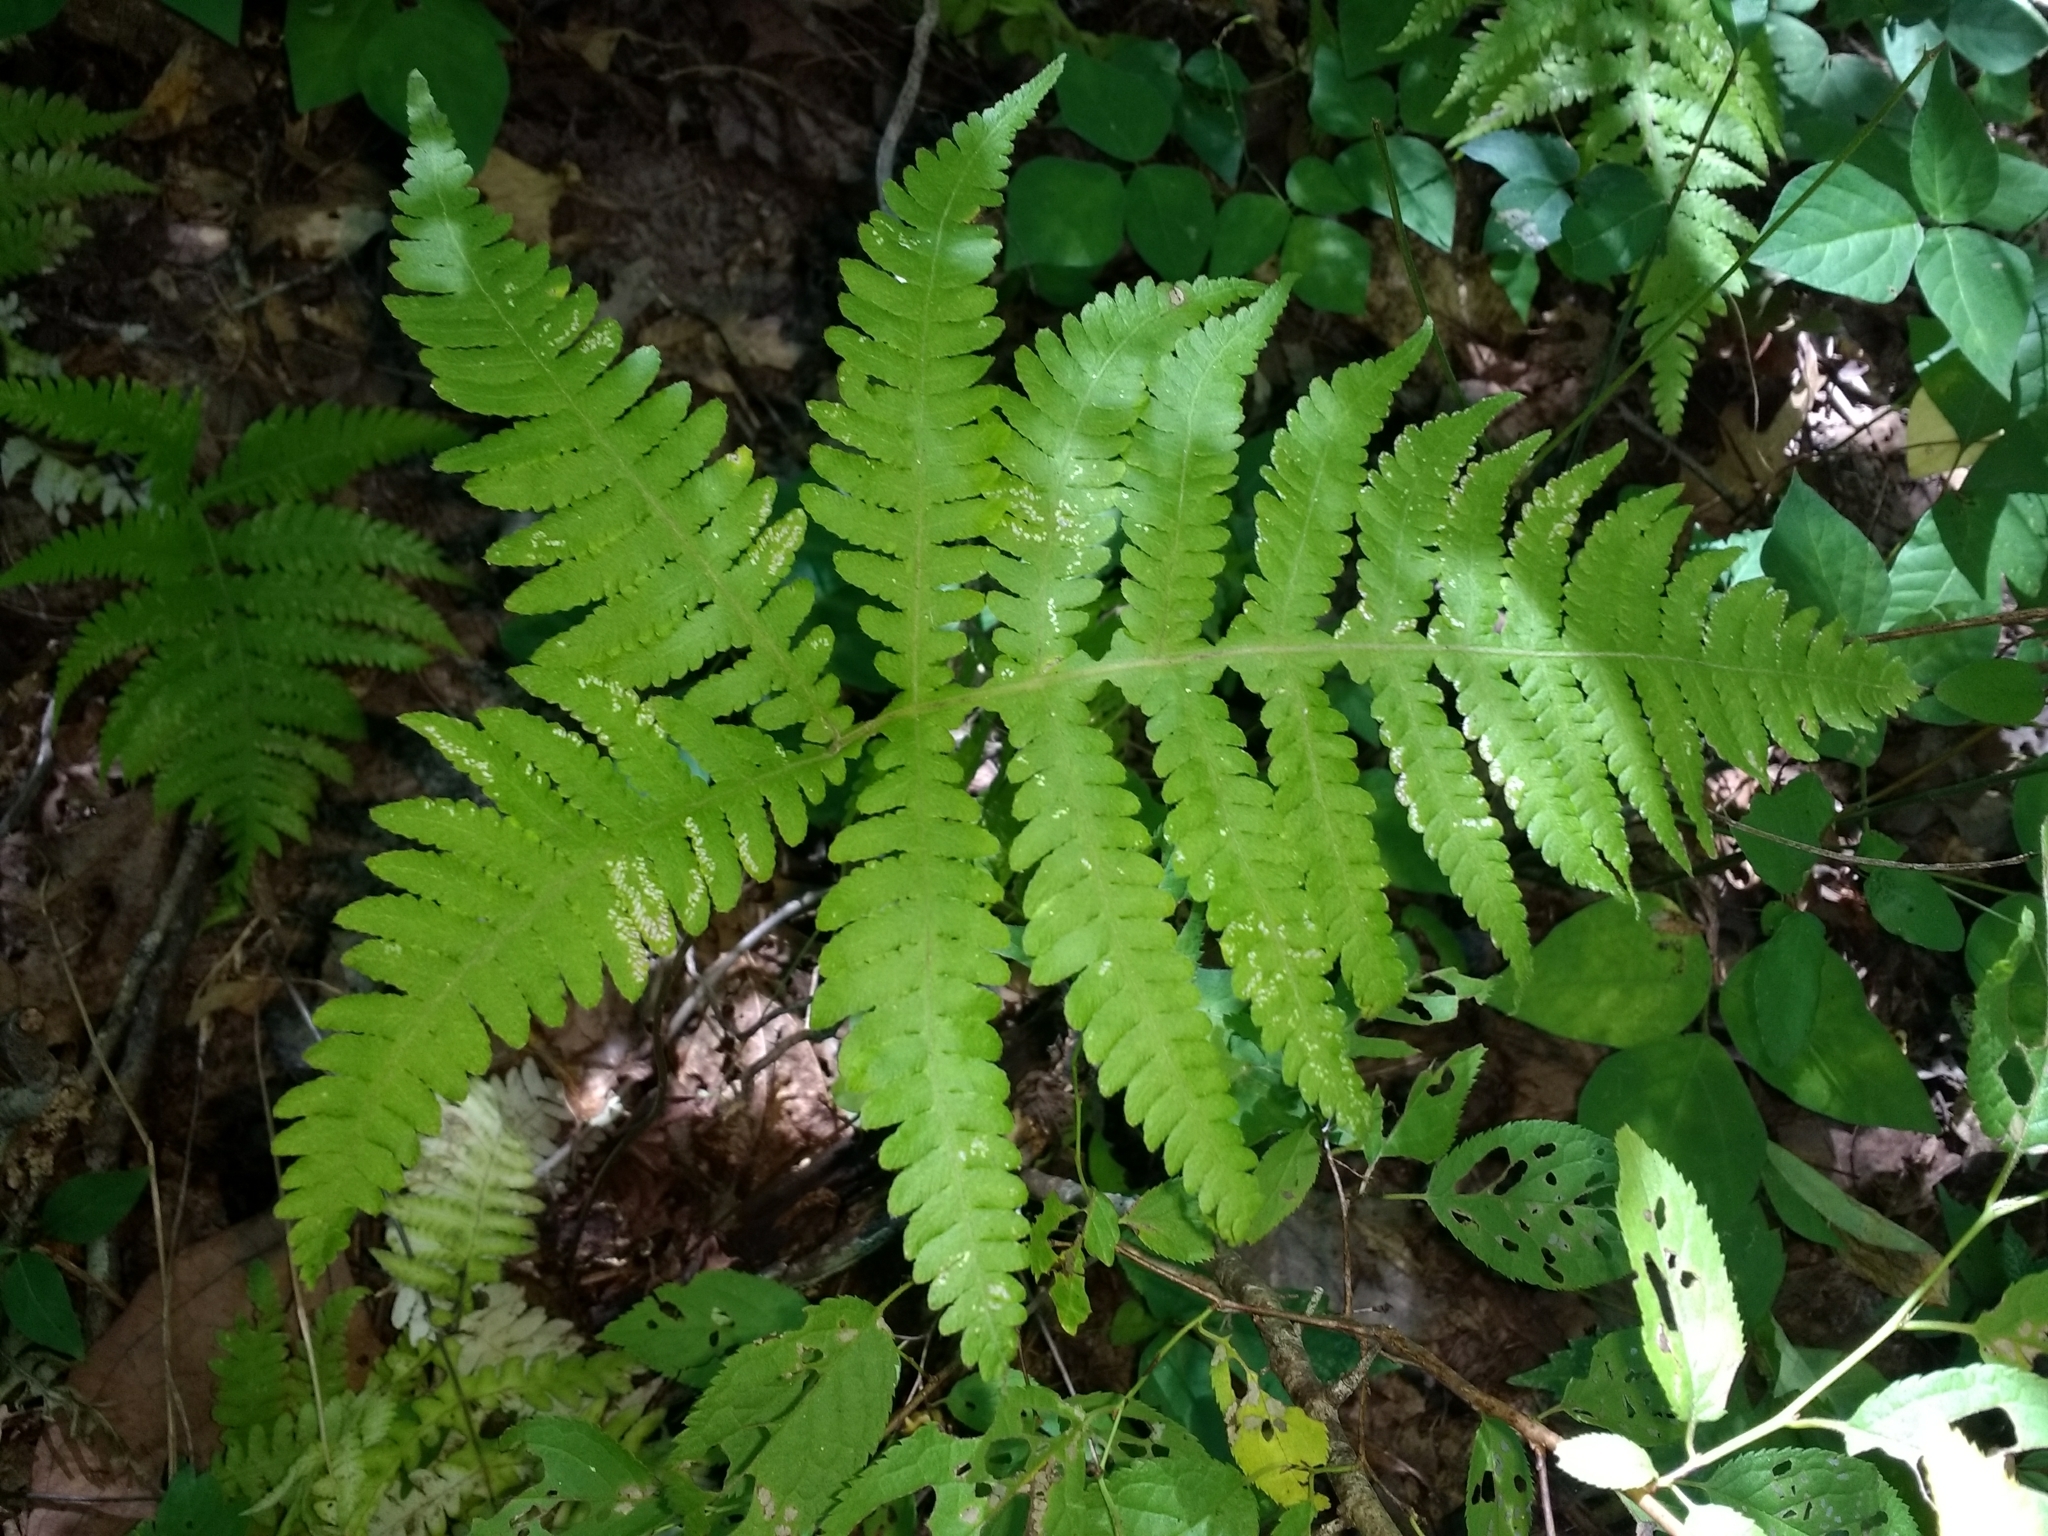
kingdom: Plantae
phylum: Tracheophyta
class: Polypodiopsida
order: Polypodiales
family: Thelypteridaceae
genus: Phegopteris
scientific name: Phegopteris hexagonoptera
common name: Broad beech fern
